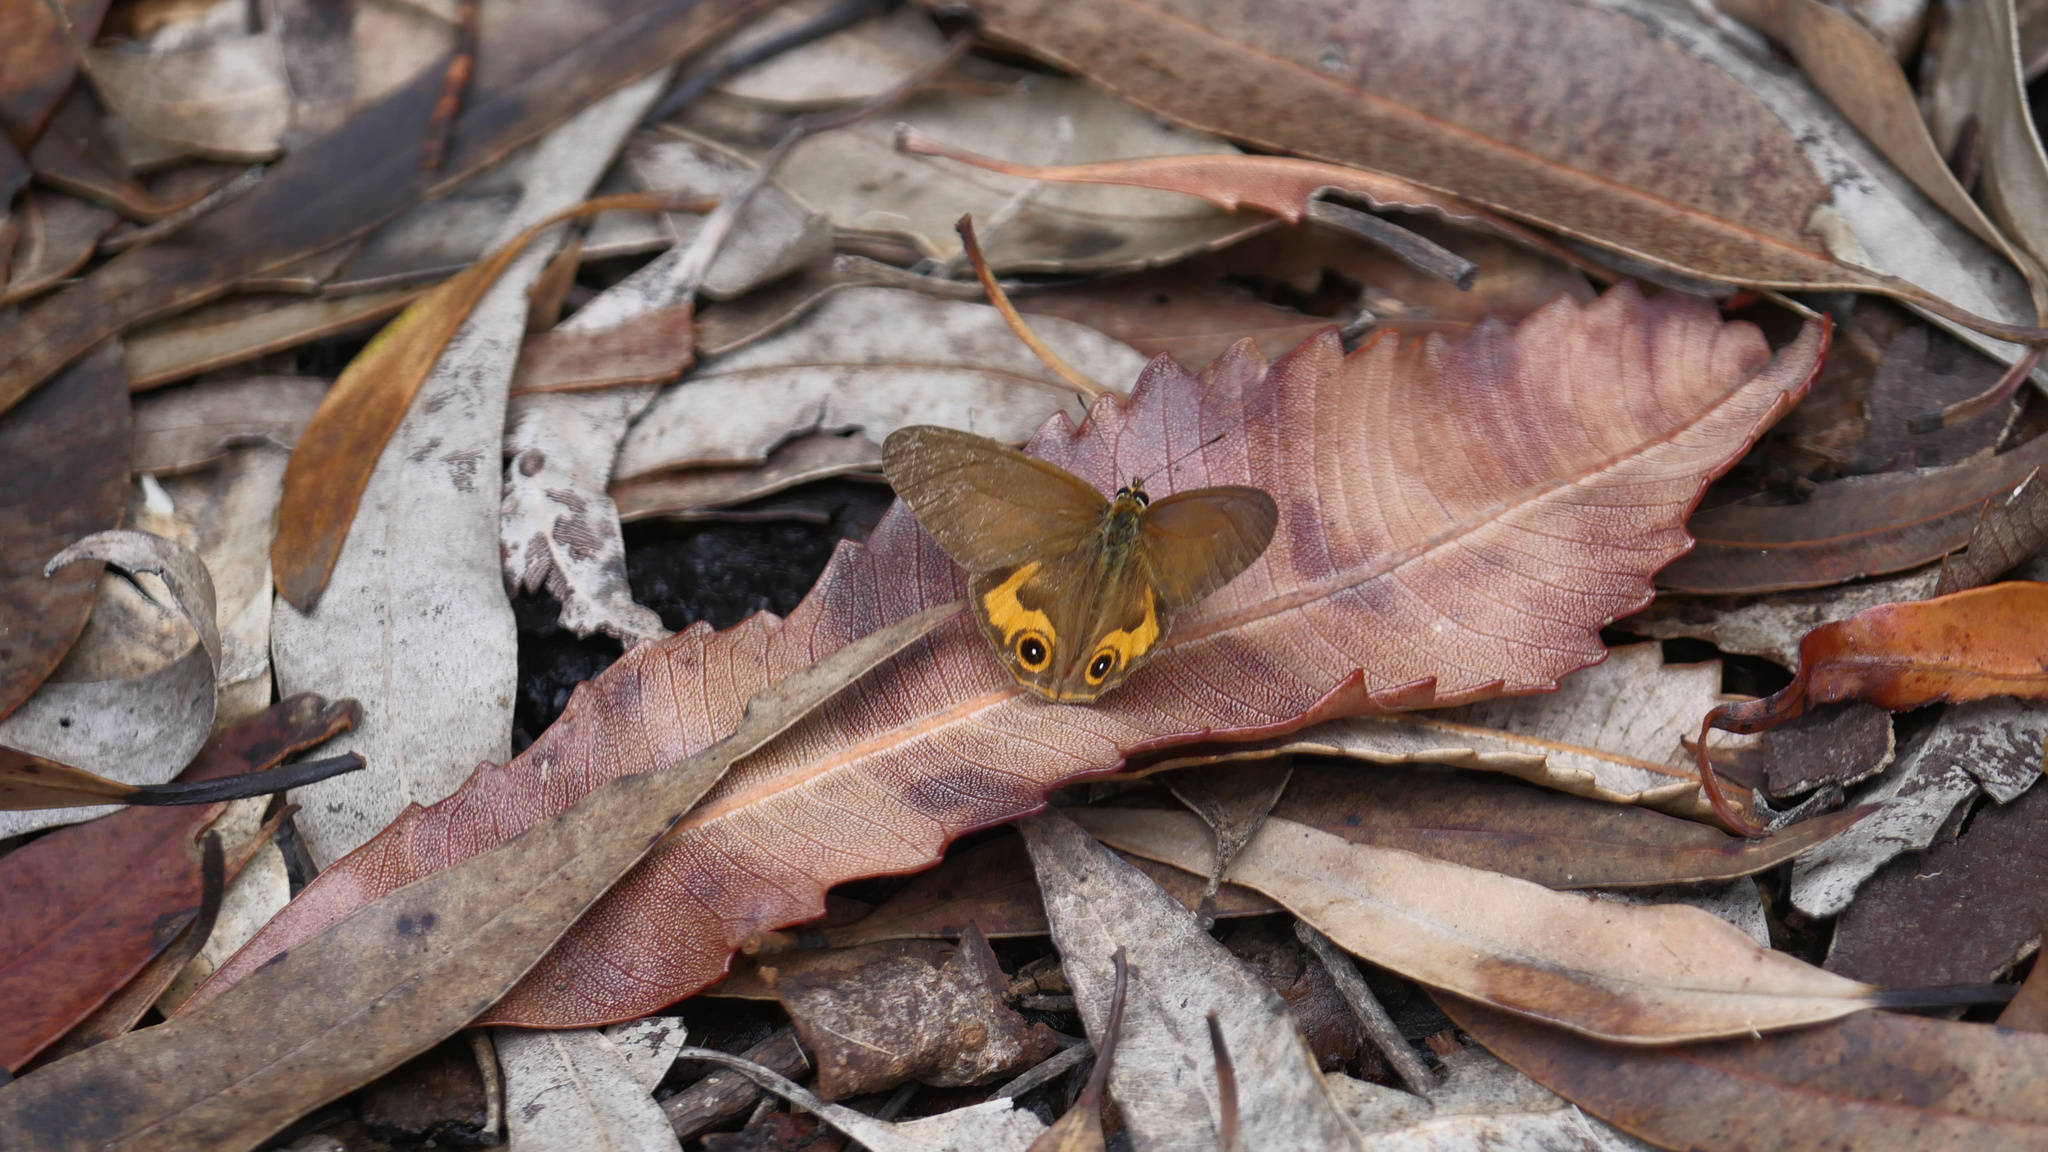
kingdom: Animalia
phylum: Arthropoda
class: Insecta
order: Lepidoptera
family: Nymphalidae
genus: Hypocysta
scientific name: Hypocysta metirius
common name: Brown ringlet
